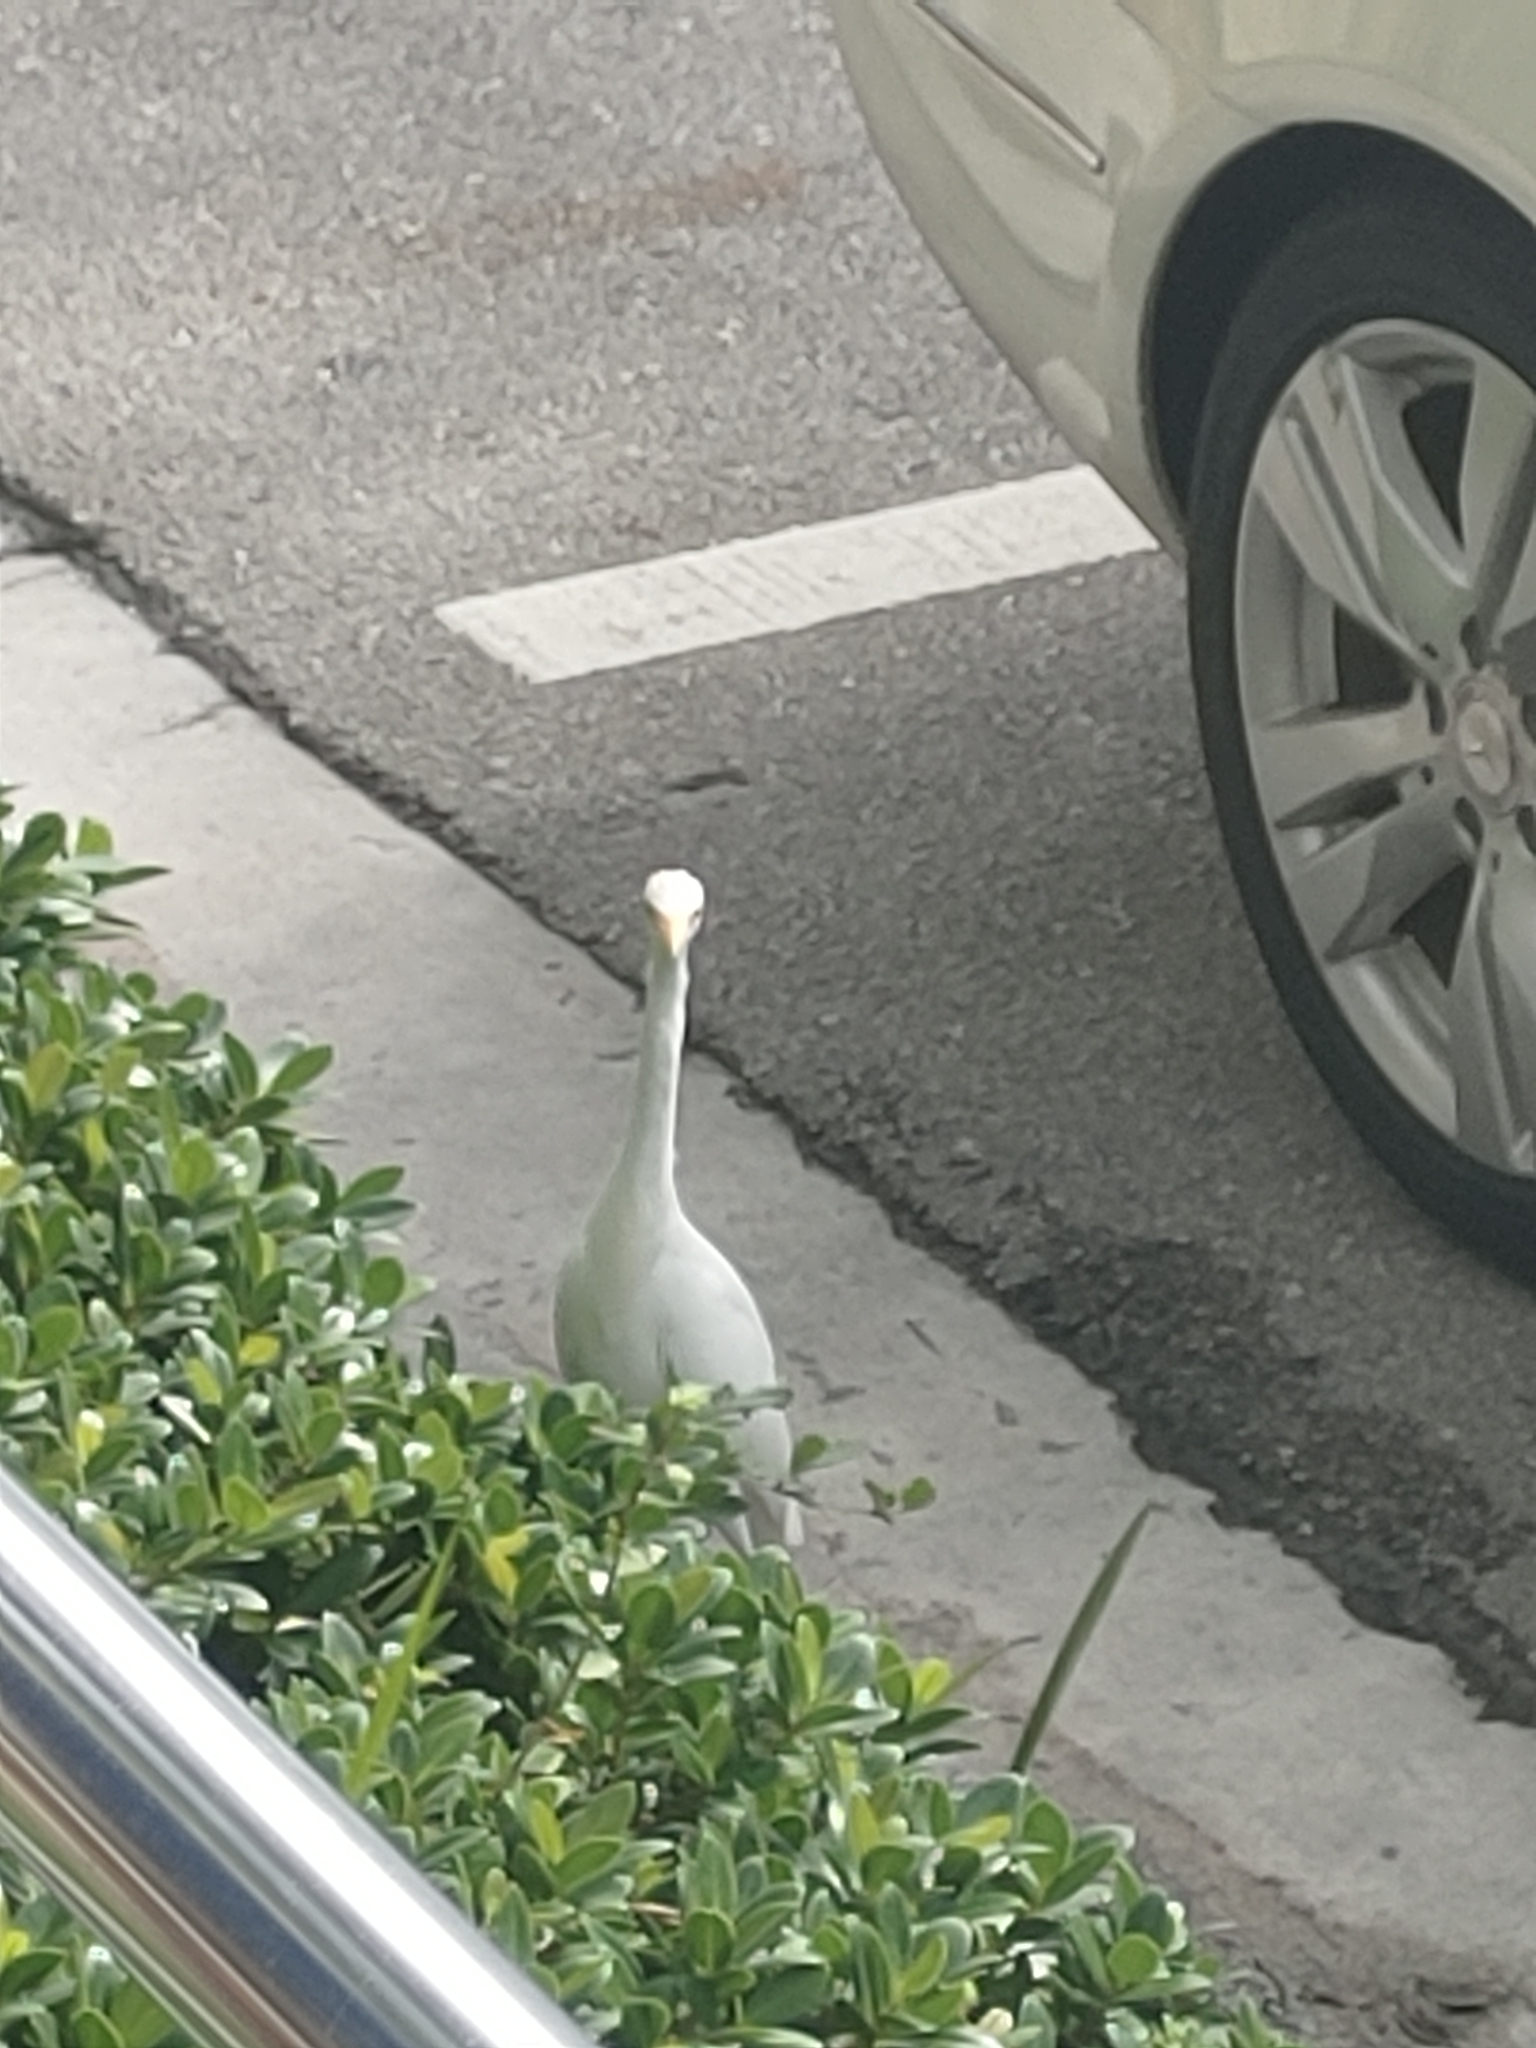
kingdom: Animalia
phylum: Chordata
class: Aves
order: Pelecaniformes
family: Ardeidae
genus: Bubulcus
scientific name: Bubulcus ibis
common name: Cattle egret
